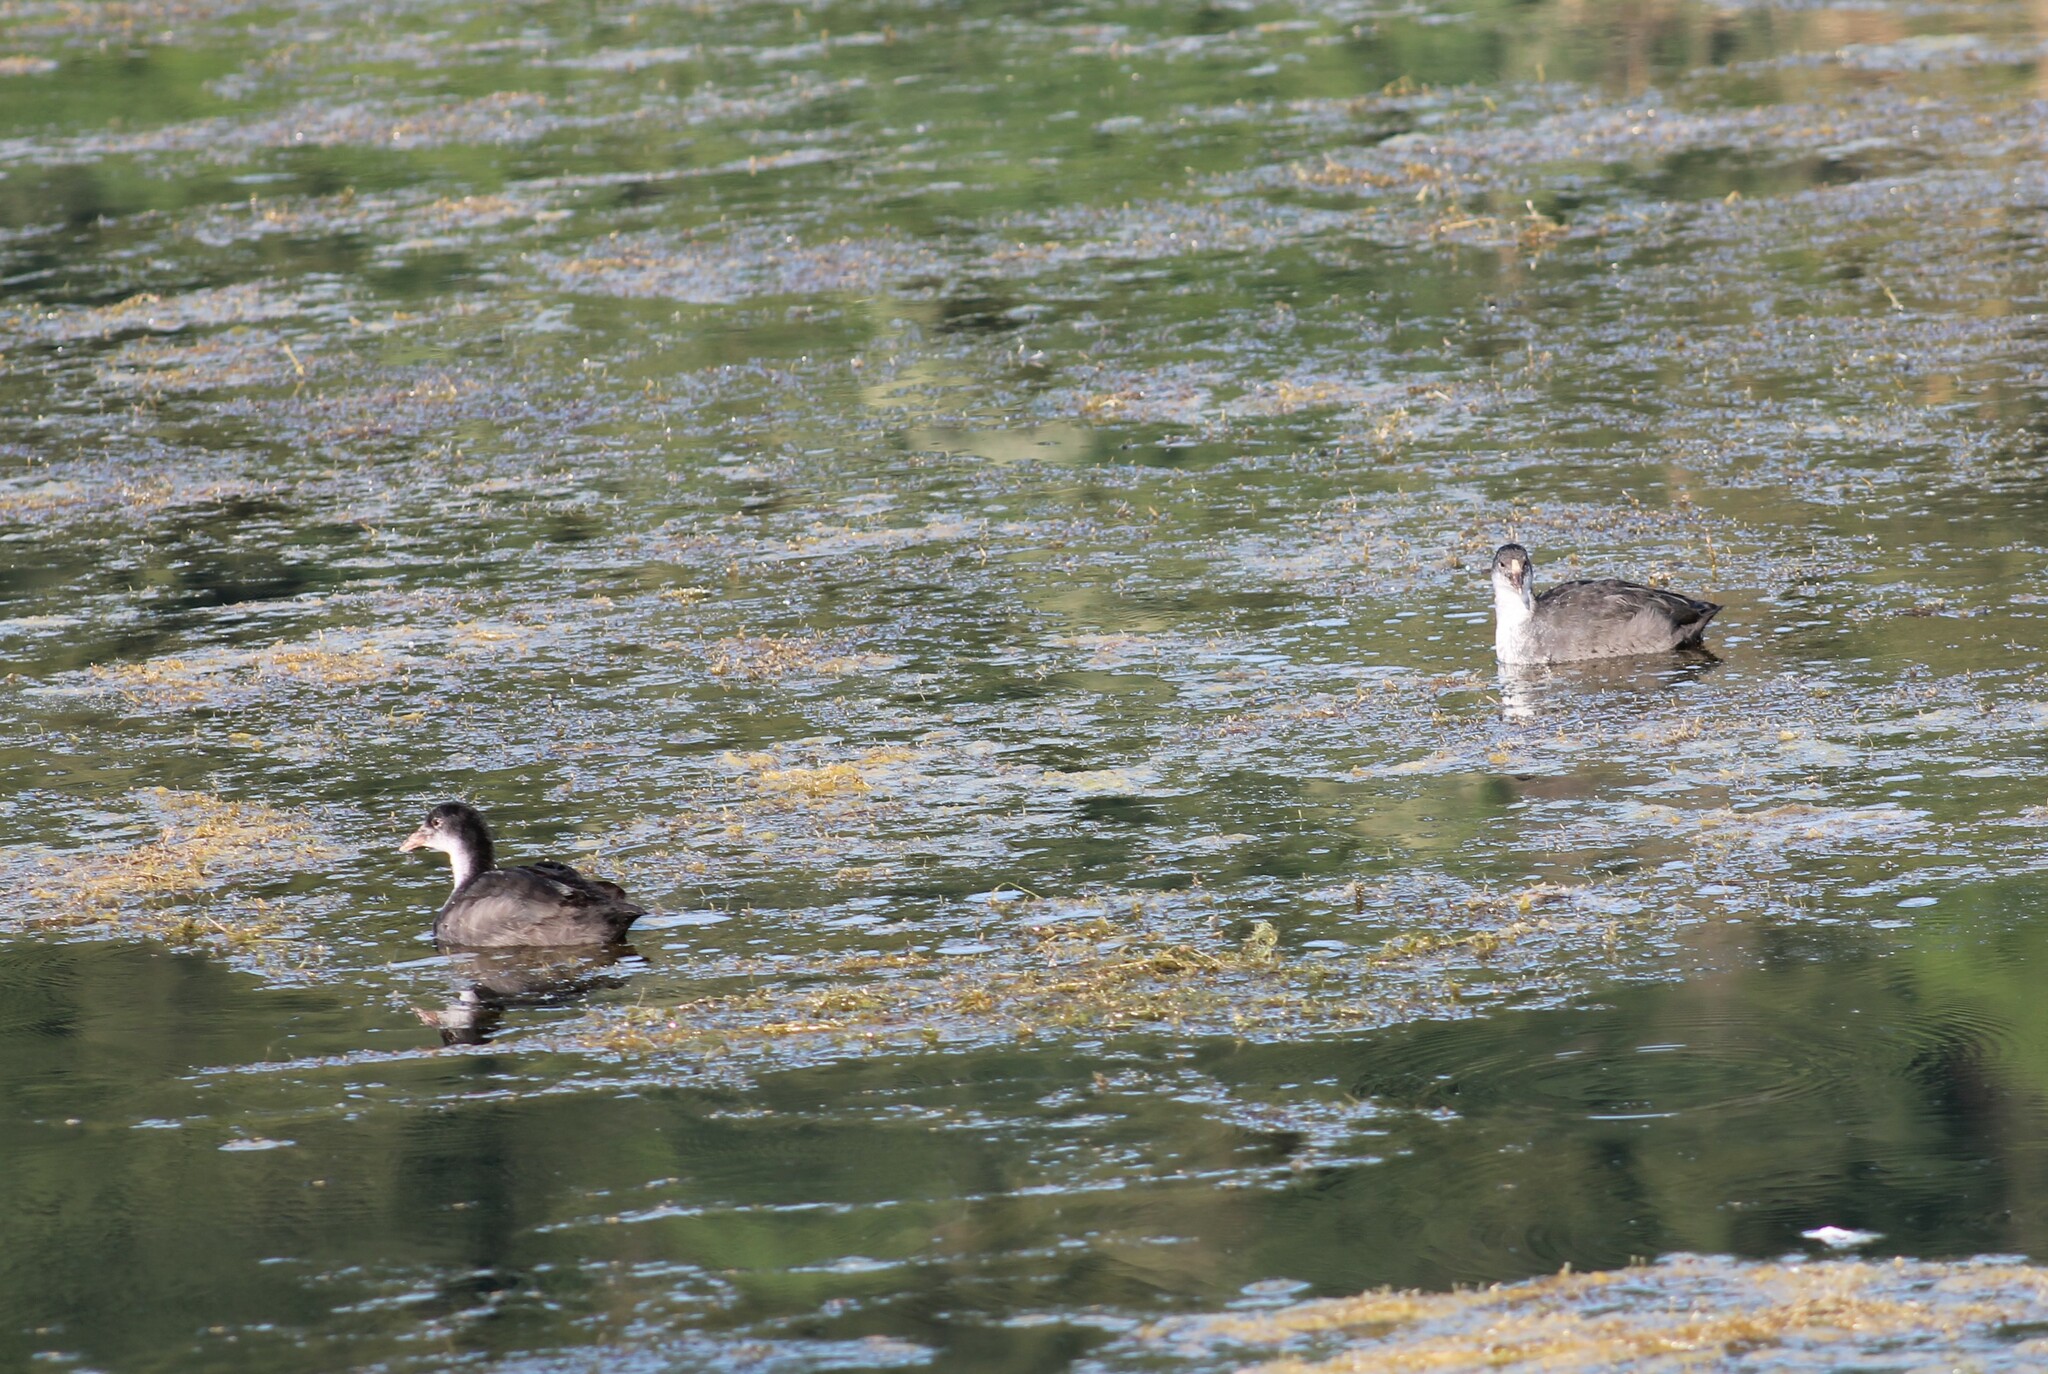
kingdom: Animalia
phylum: Chordata
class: Aves
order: Gruiformes
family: Rallidae
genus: Fulica
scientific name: Fulica atra
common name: Eurasian coot
